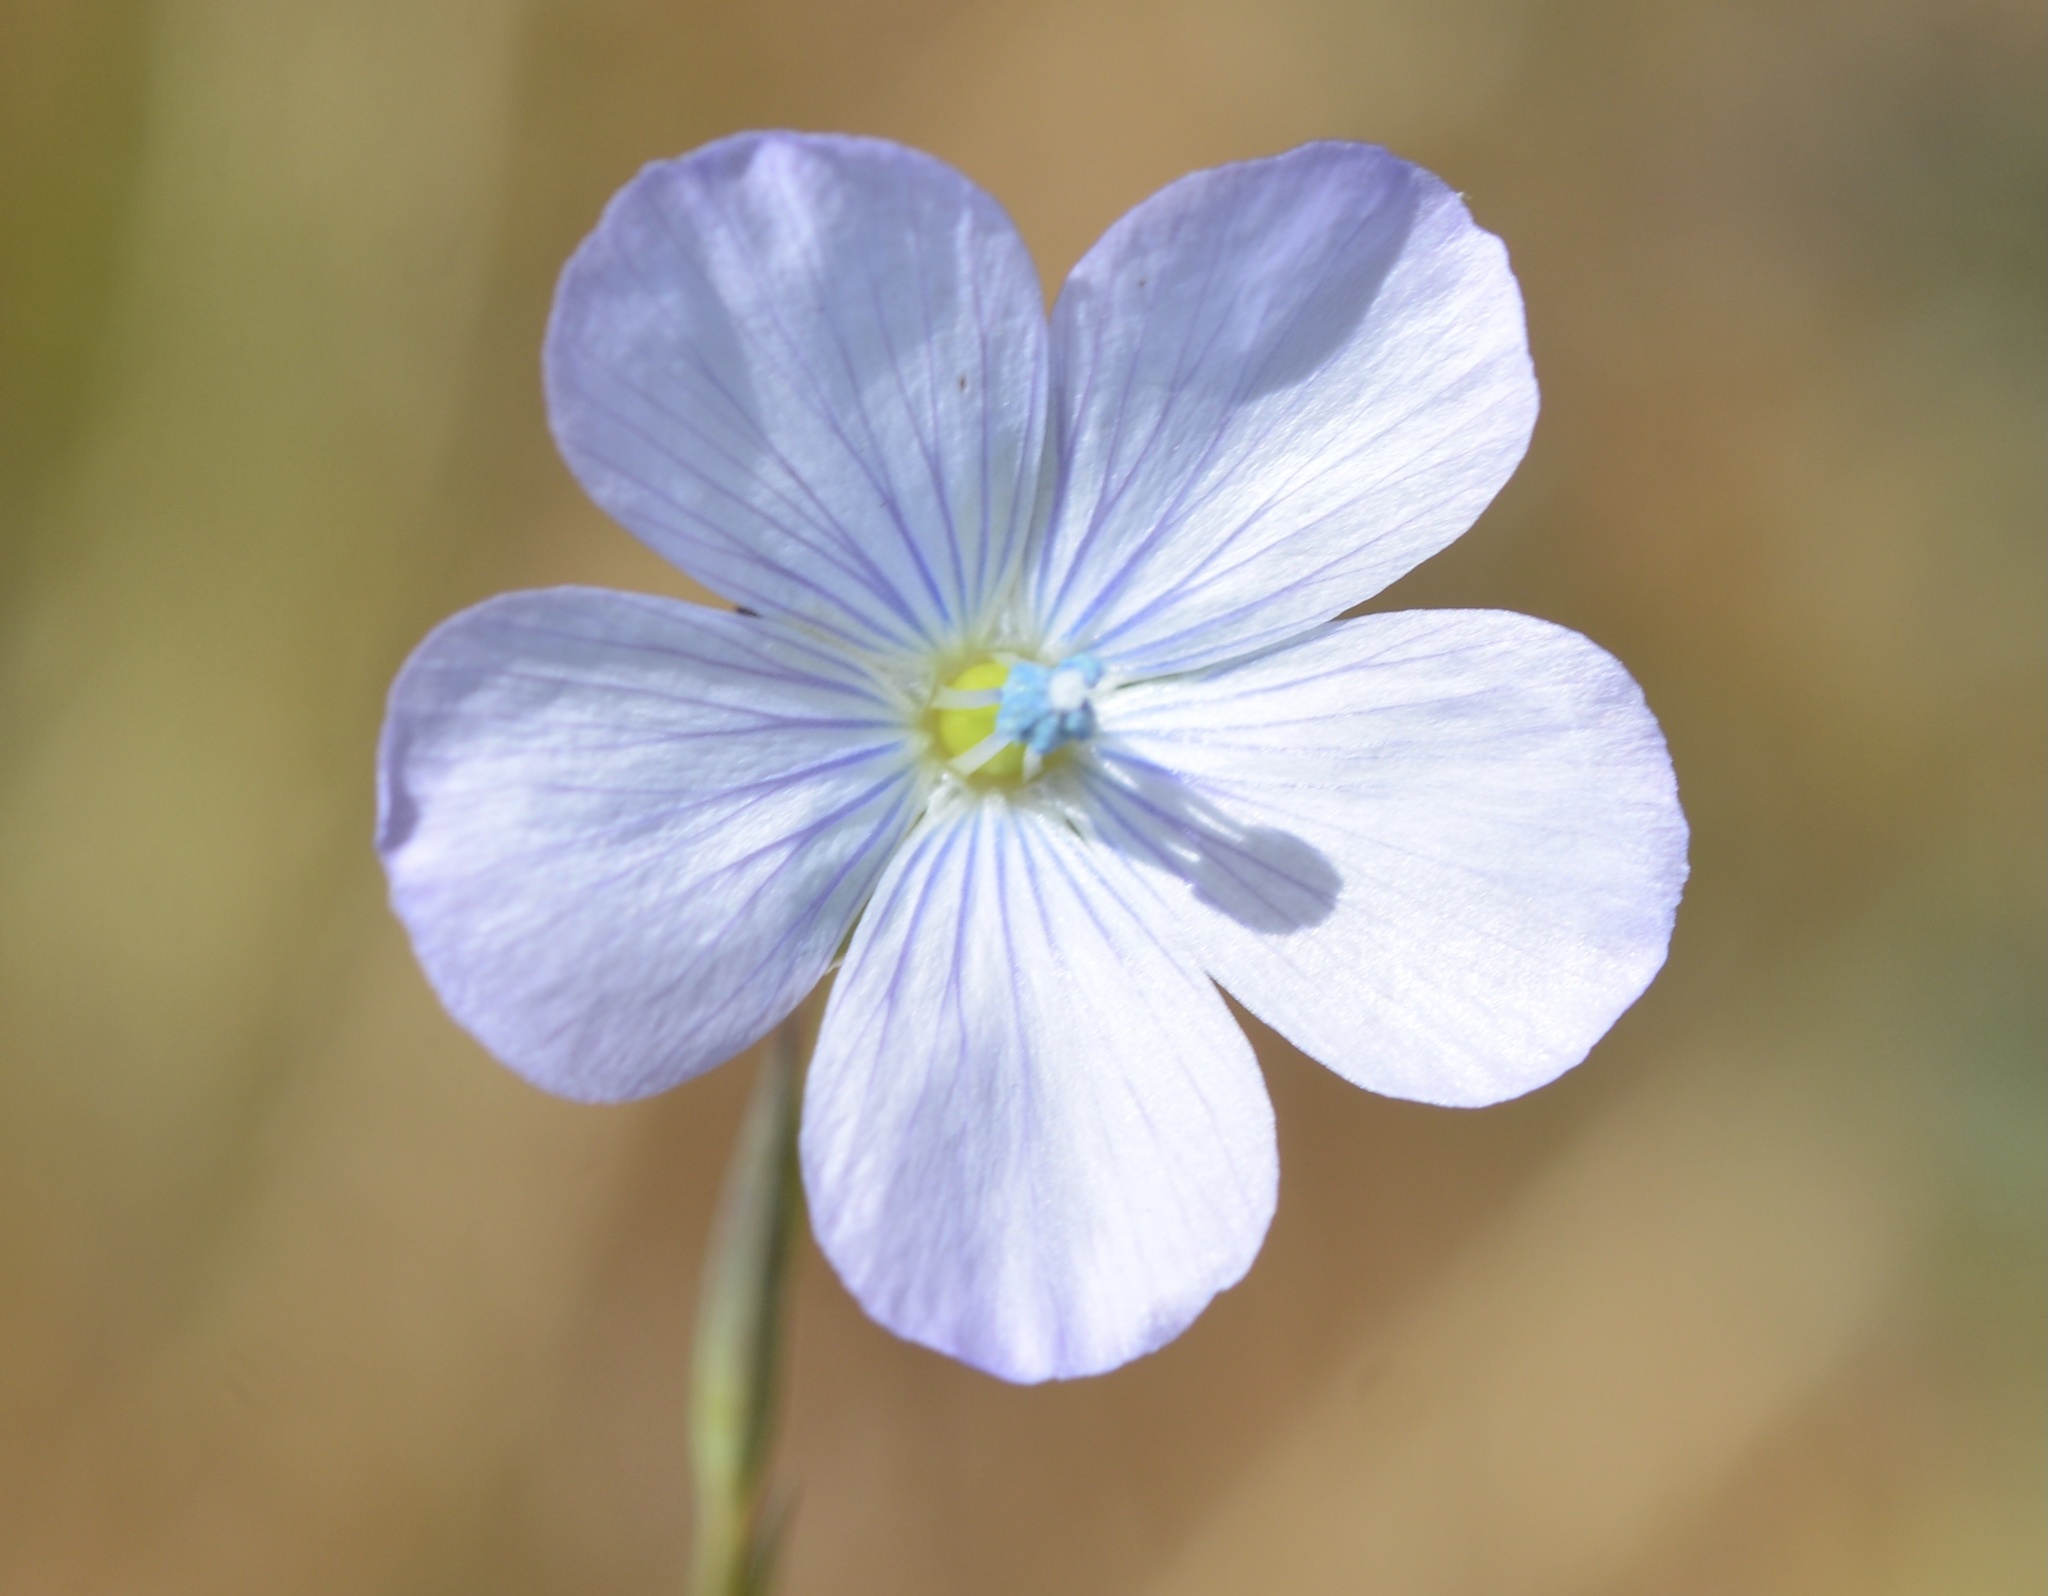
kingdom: Plantae
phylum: Tracheophyta
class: Magnoliopsida
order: Malpighiales
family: Linaceae
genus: Linum
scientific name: Linum bienne
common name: Pale flax
